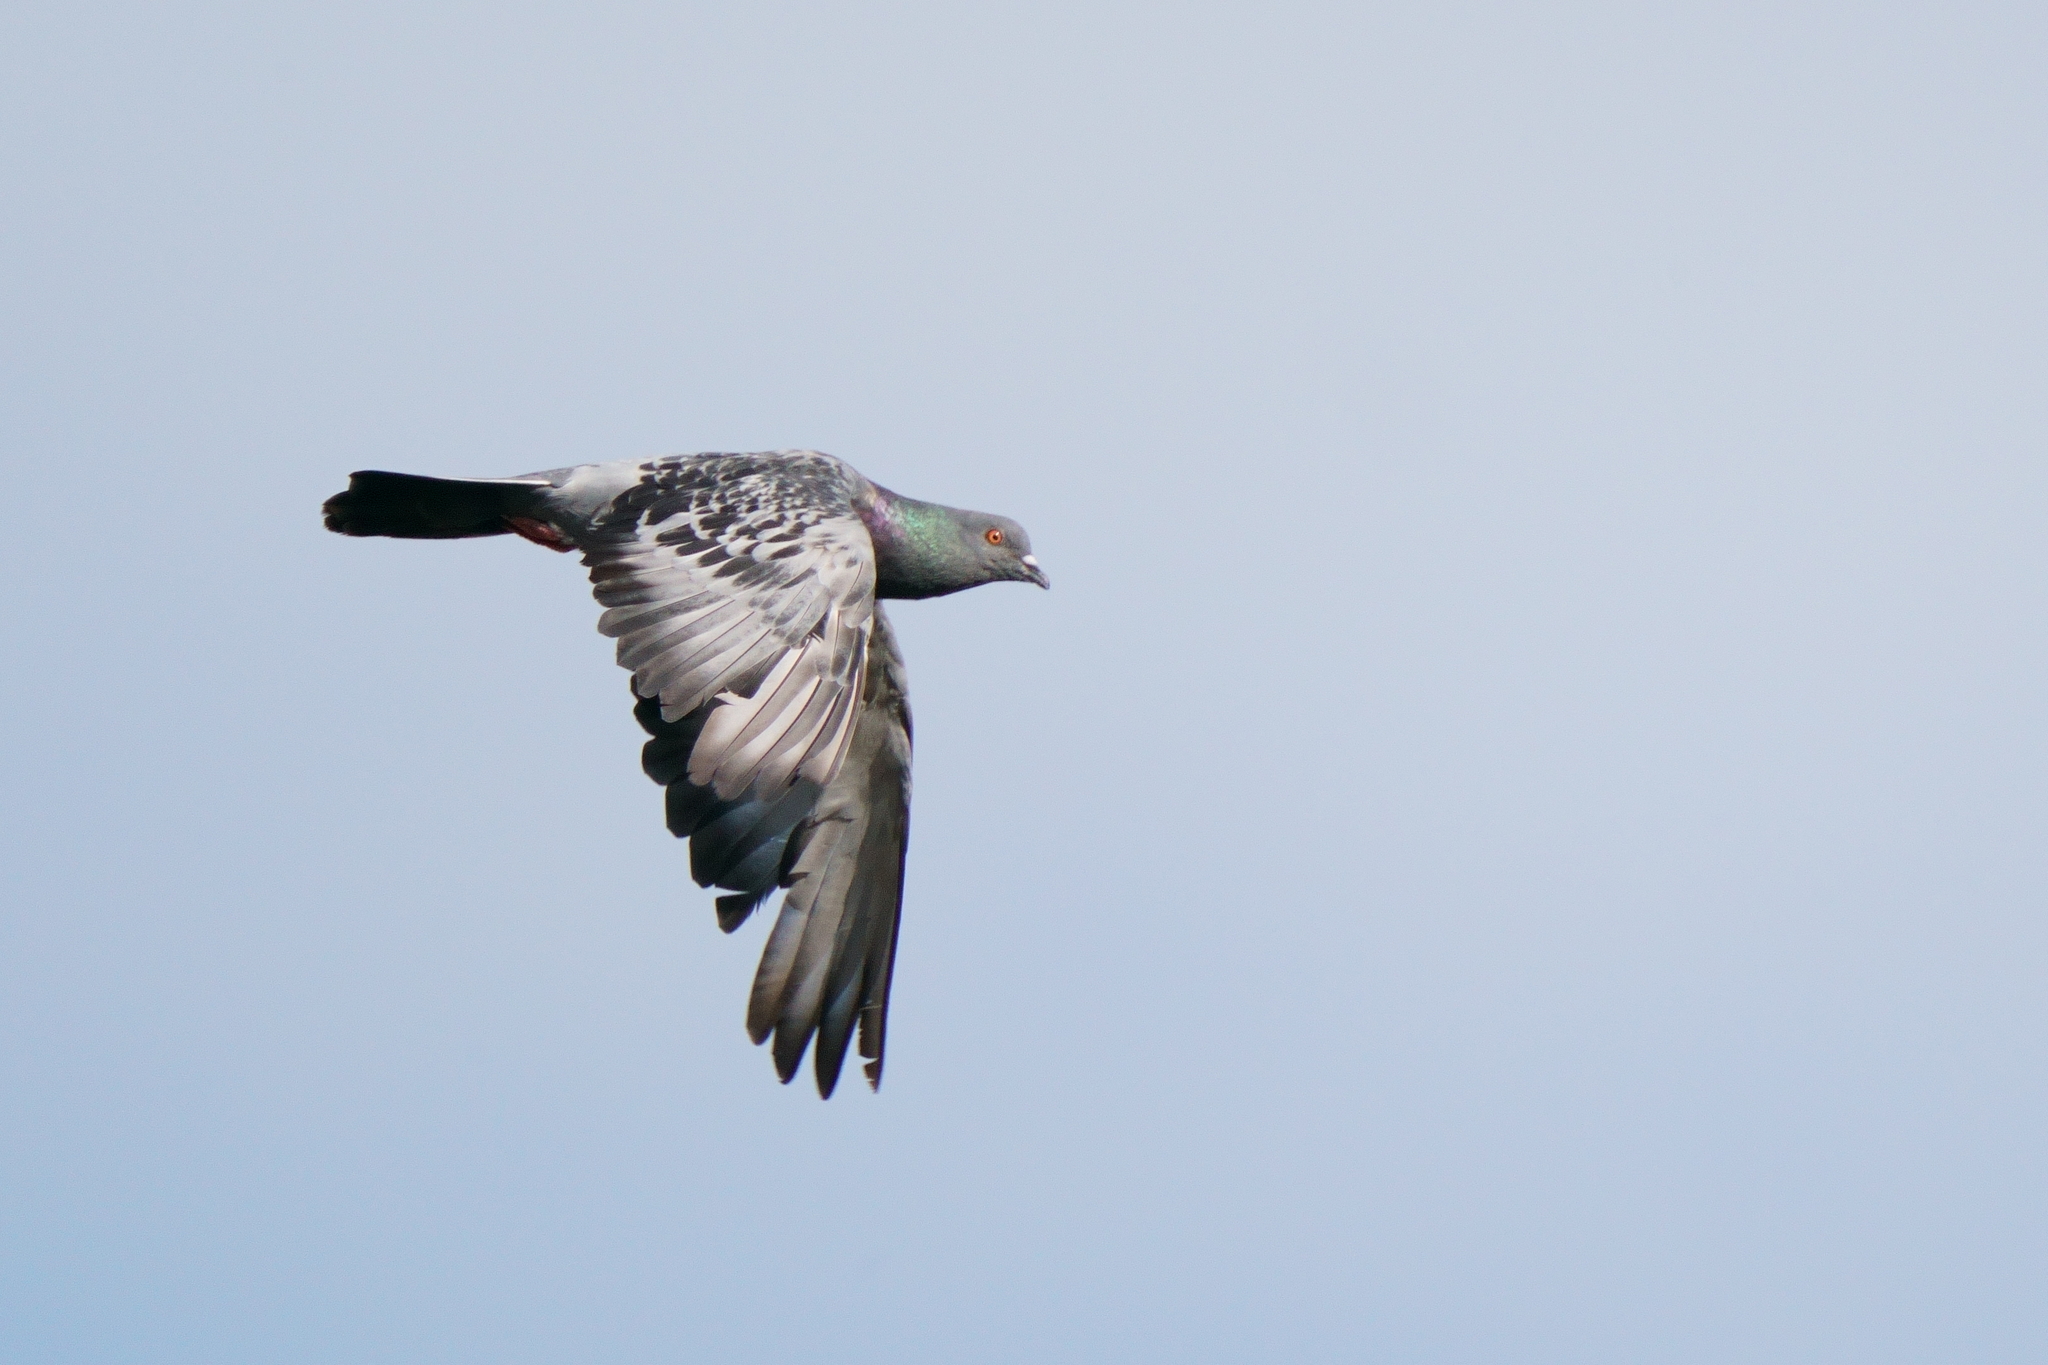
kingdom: Animalia
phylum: Chordata
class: Aves
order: Columbiformes
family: Columbidae
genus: Columba
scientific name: Columba livia
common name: Rock pigeon
